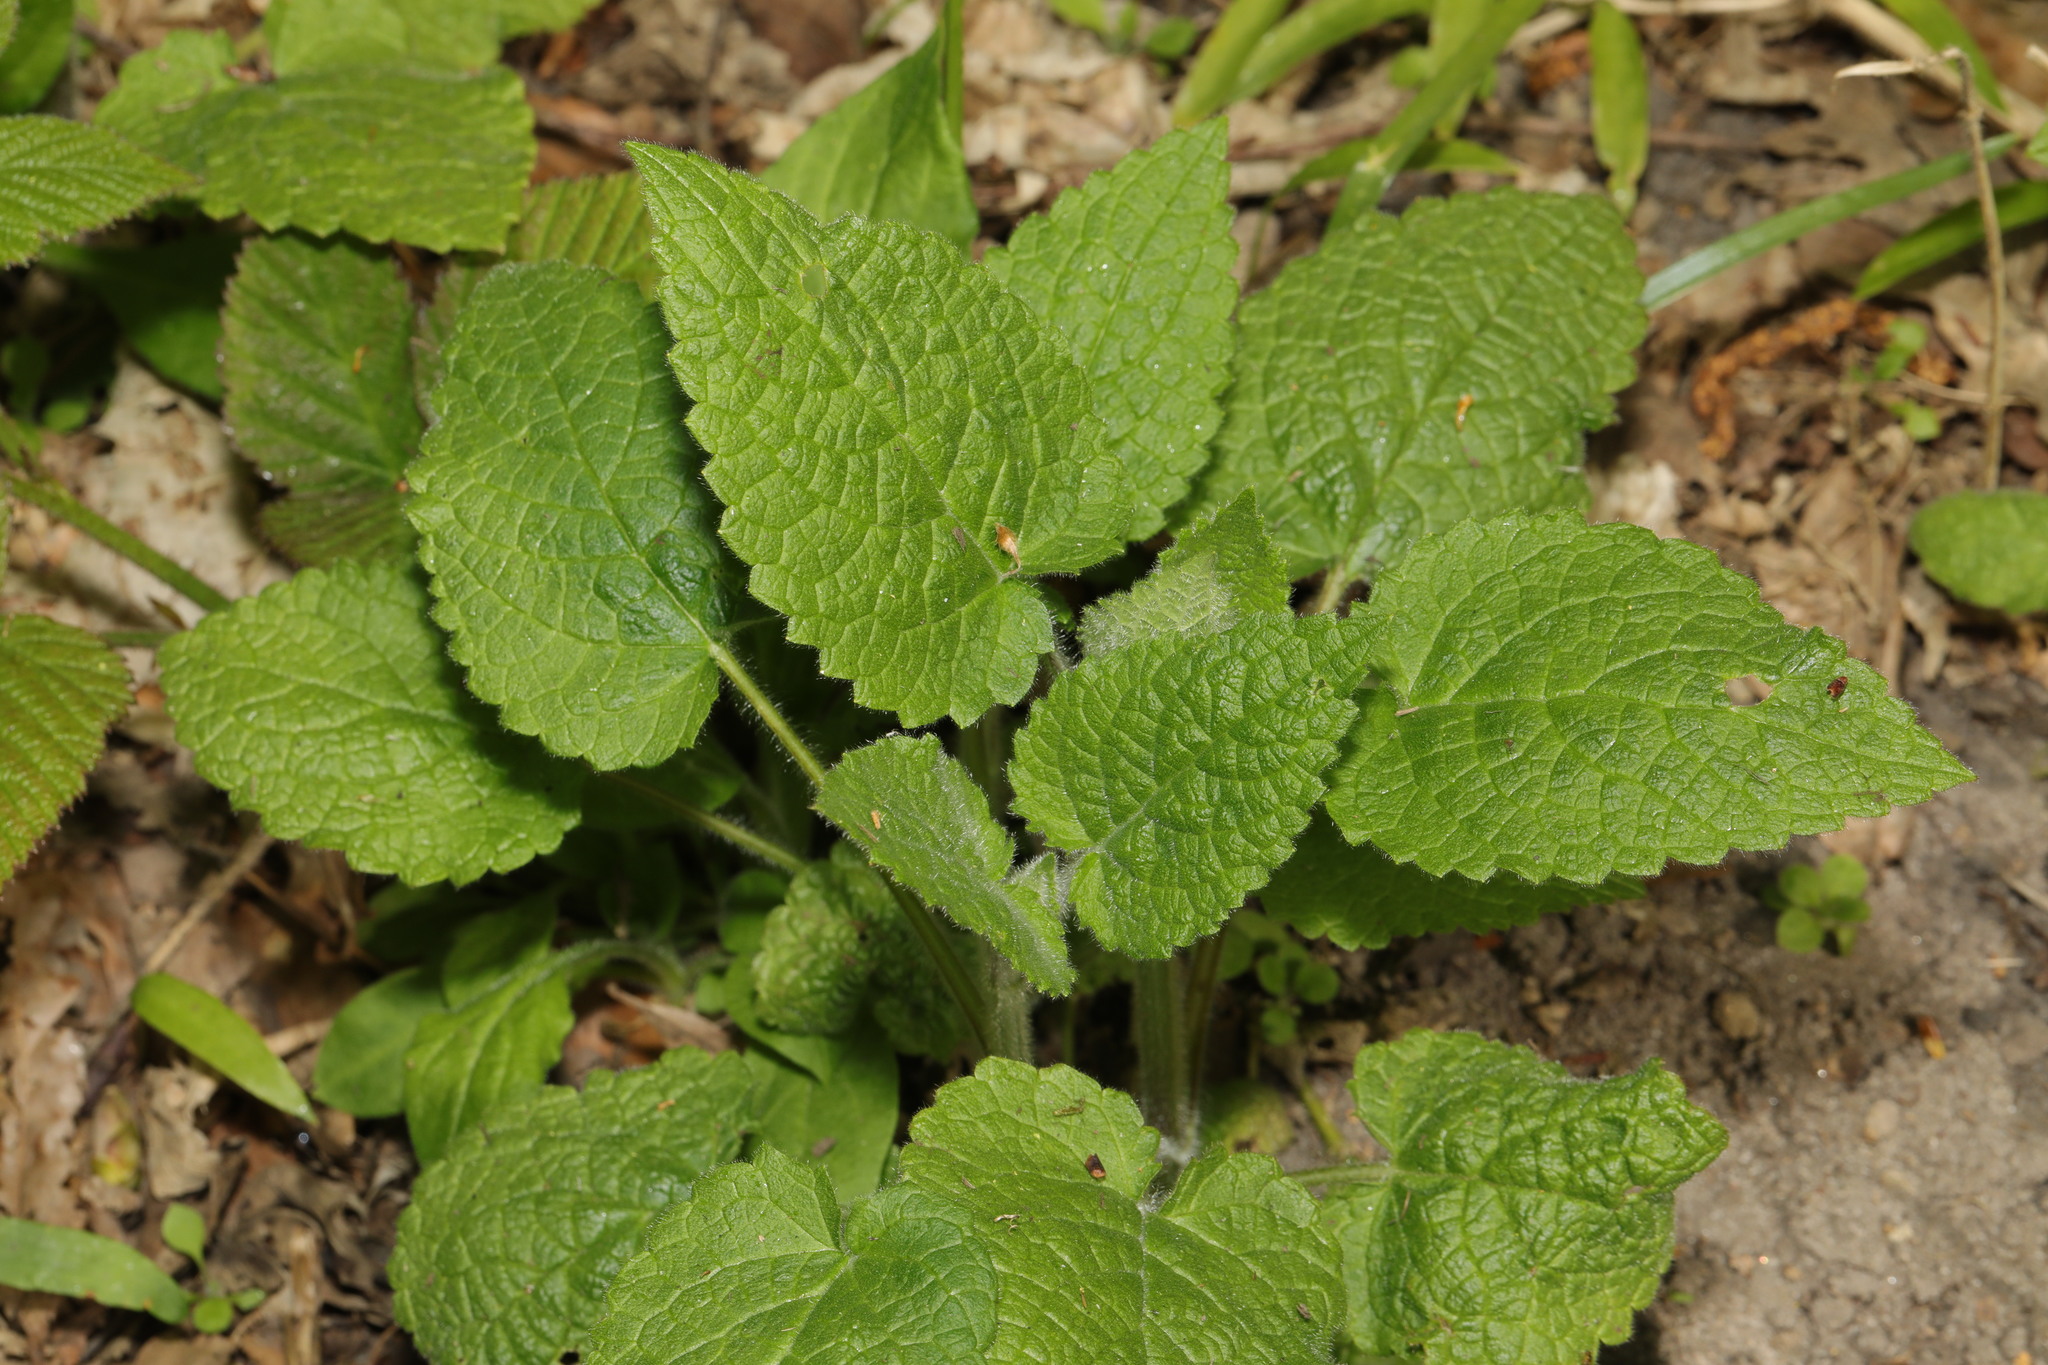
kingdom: Plantae
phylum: Tracheophyta
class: Magnoliopsida
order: Lamiales
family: Lamiaceae
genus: Stachys
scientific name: Stachys sylvatica
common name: Hedge woundwort
